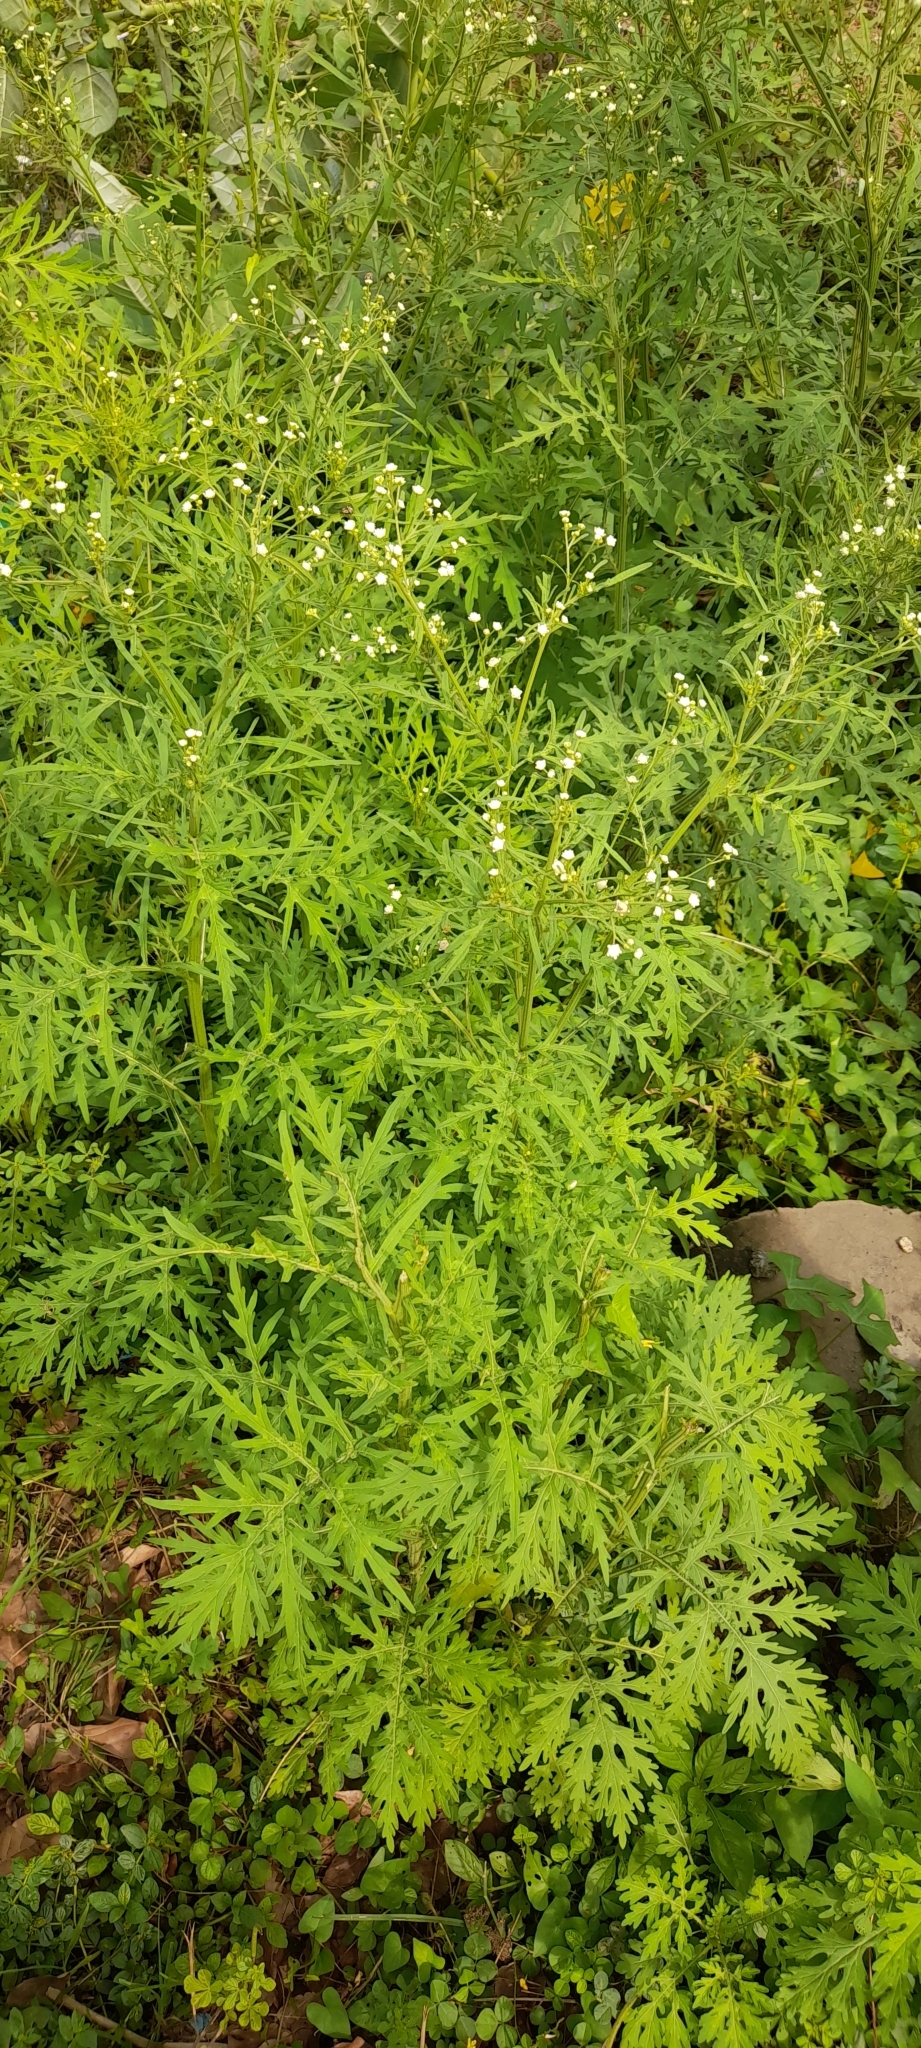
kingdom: Plantae
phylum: Tracheophyta
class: Magnoliopsida
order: Asterales
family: Asteraceae
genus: Parthenium
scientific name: Parthenium hysterophorus
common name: Santa maria feverfew
